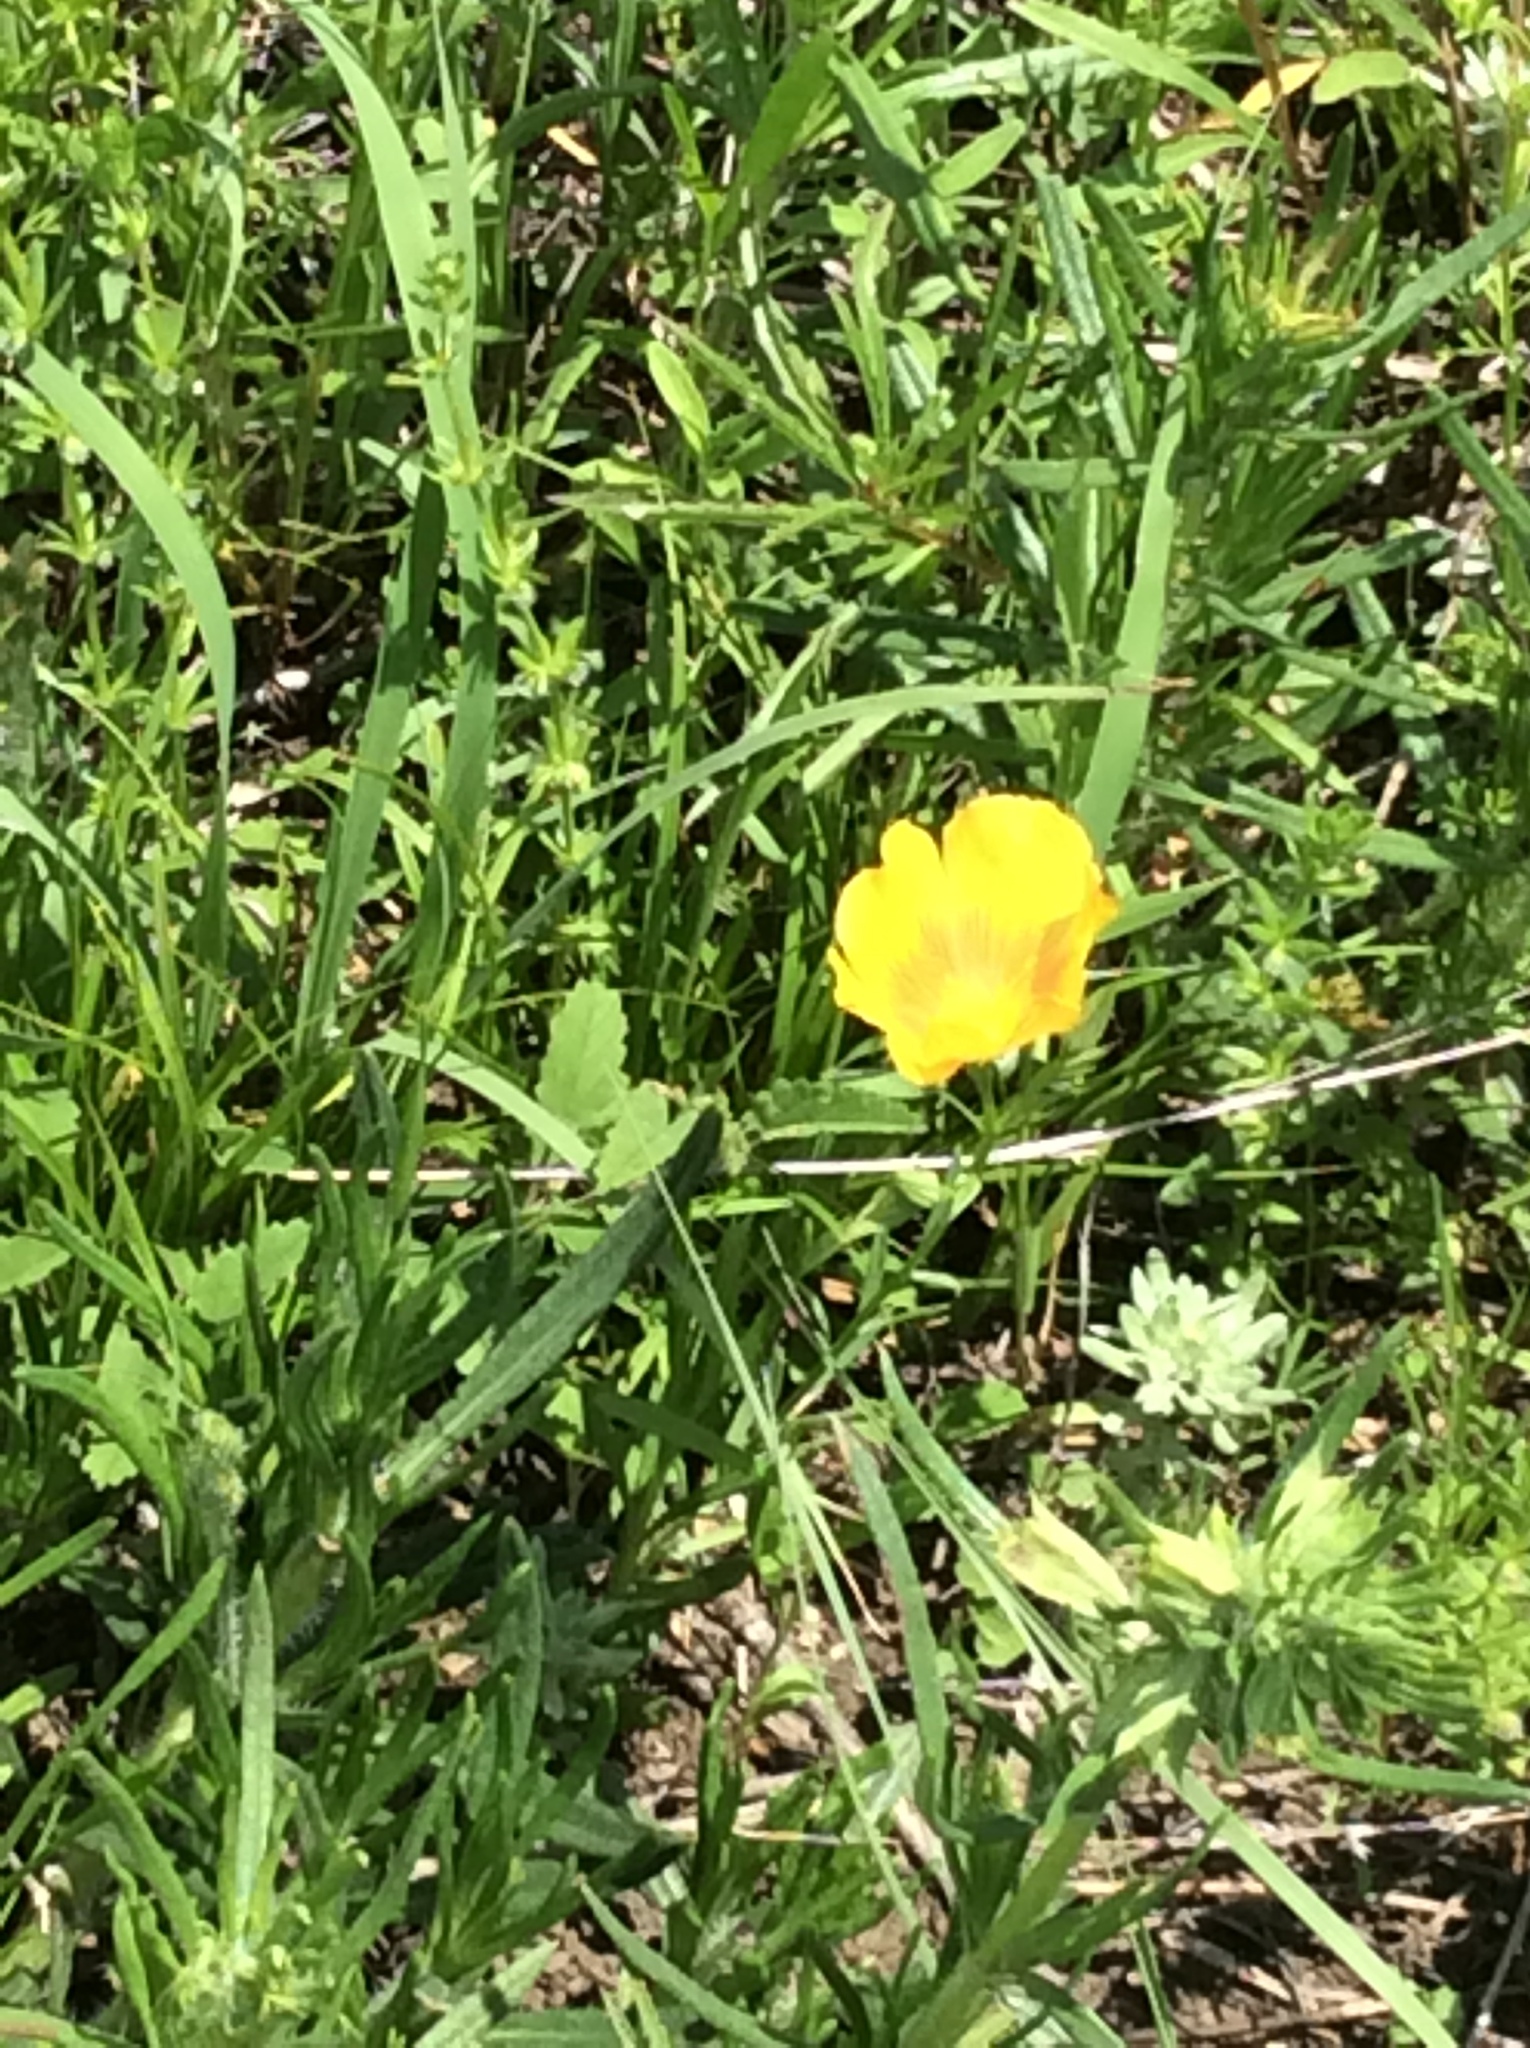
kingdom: Plantae
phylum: Tracheophyta
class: Magnoliopsida
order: Malpighiales
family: Linaceae
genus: Linum
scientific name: Linum rigidum
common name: Stiff-stem flax
